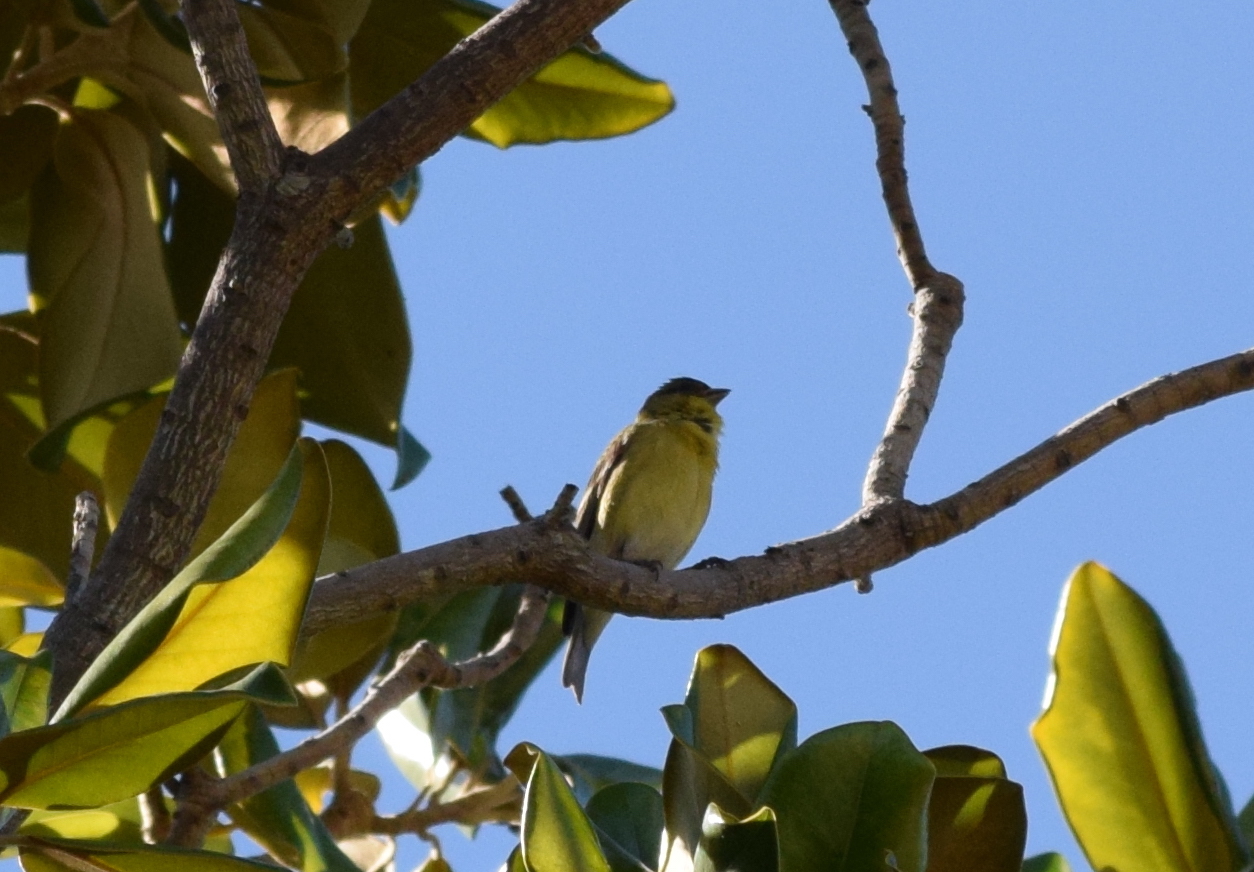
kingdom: Animalia
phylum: Chordata
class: Aves
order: Passeriformes
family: Fringillidae
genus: Spinus
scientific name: Spinus psaltria
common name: Lesser goldfinch
